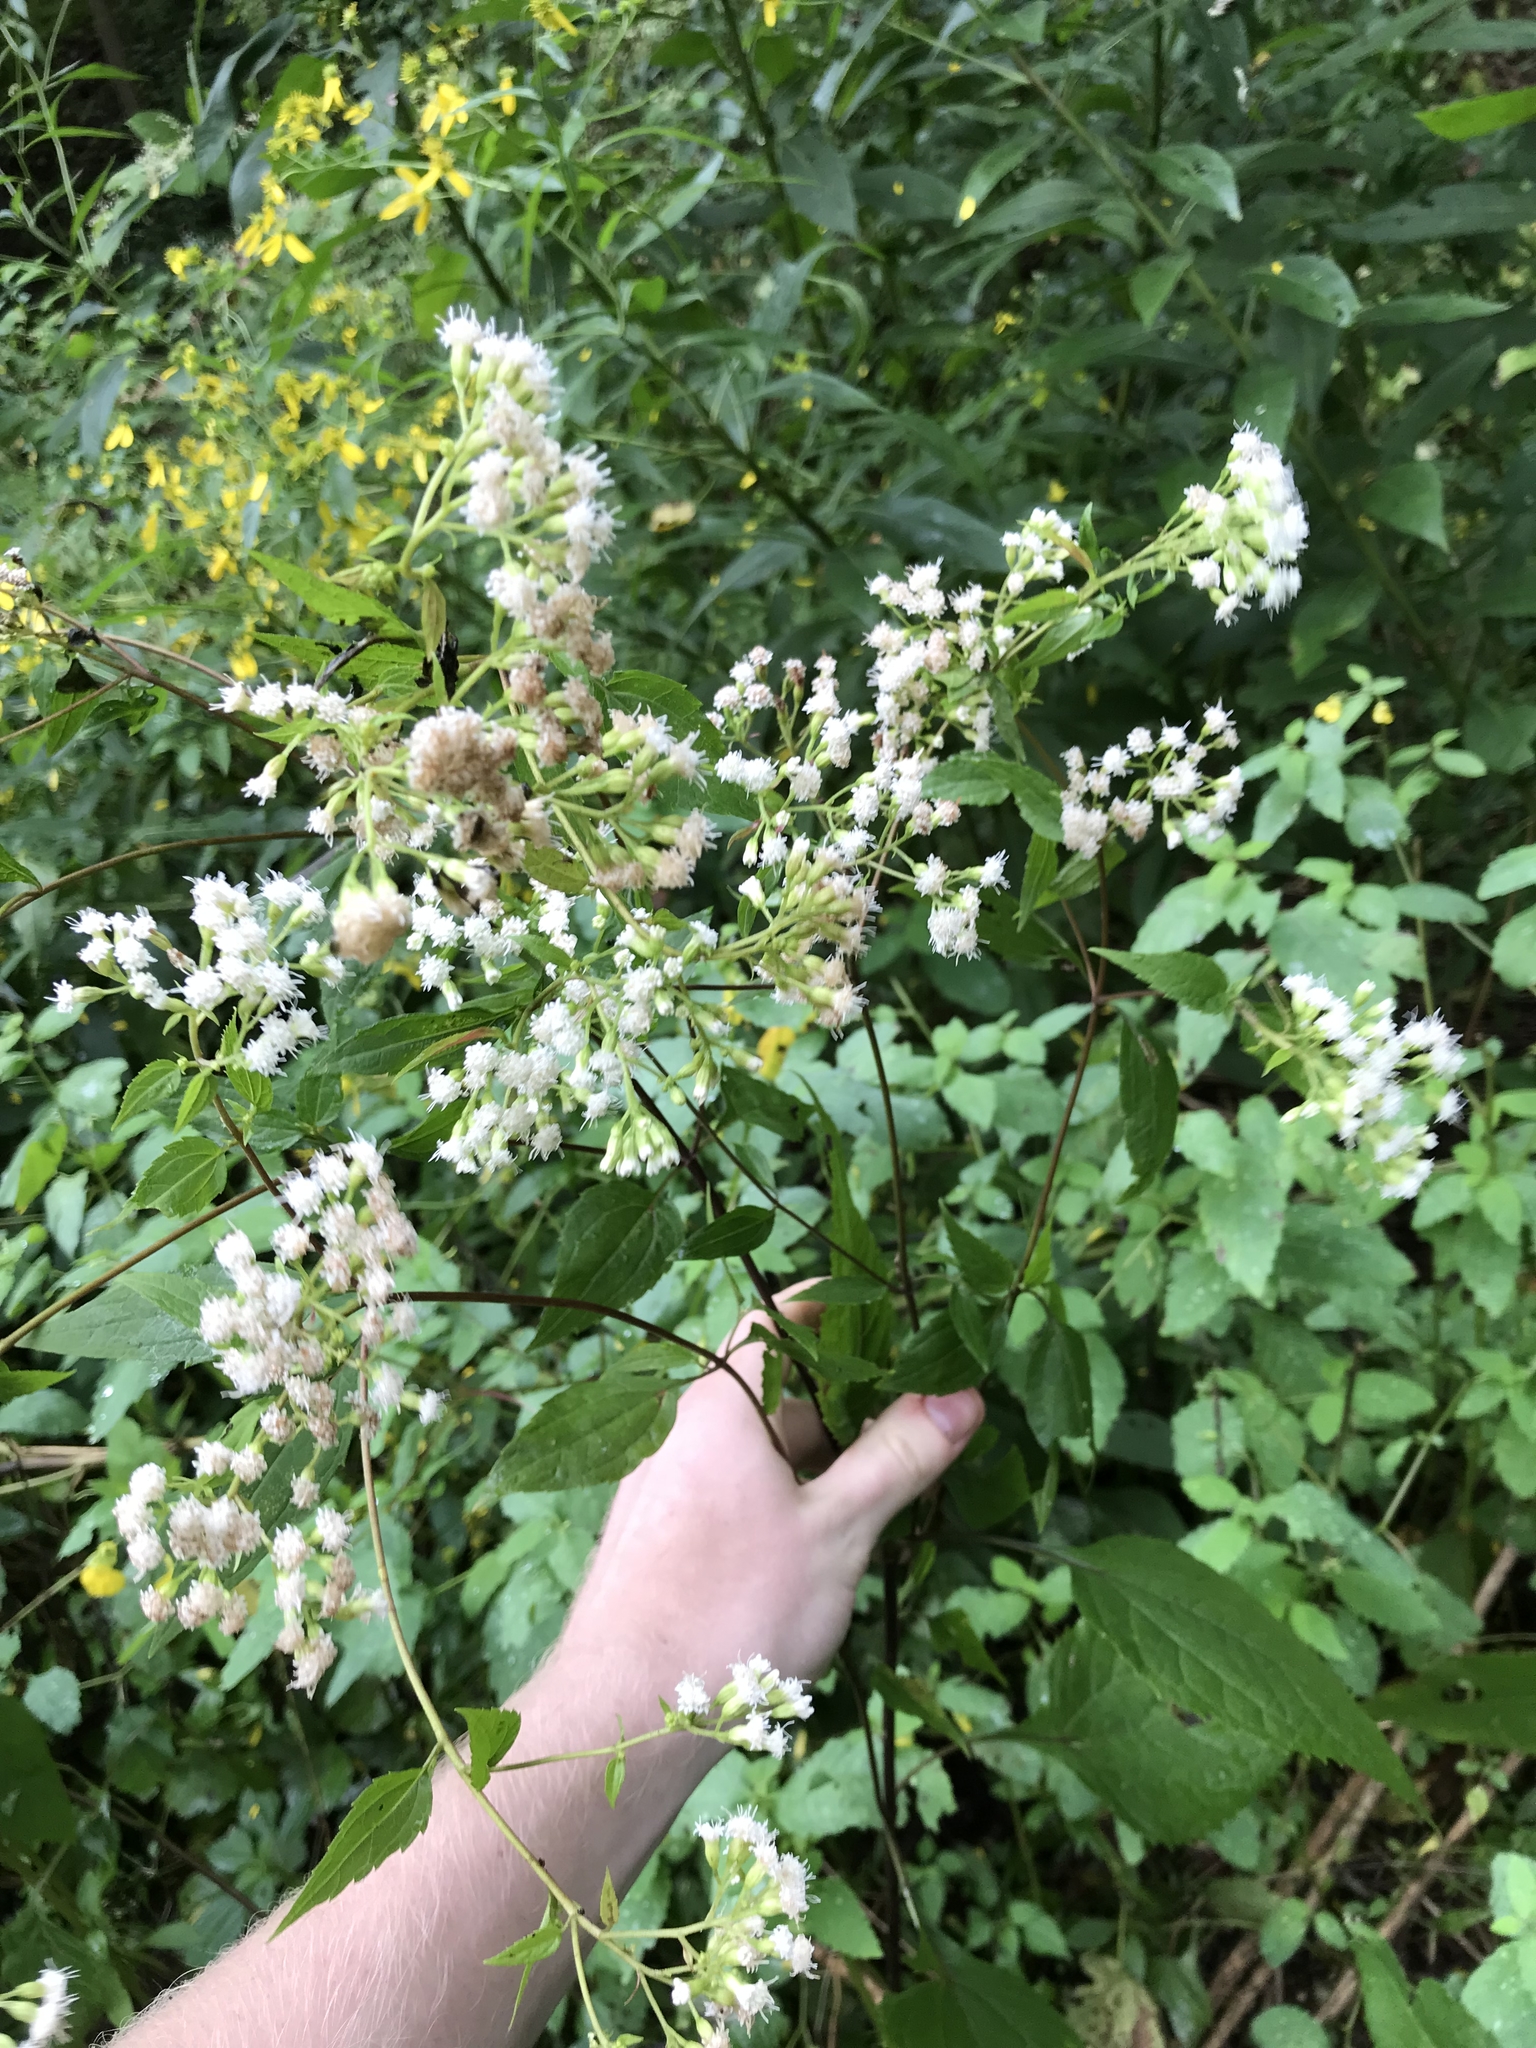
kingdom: Plantae
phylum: Tracheophyta
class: Magnoliopsida
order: Asterales
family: Asteraceae
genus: Ageratina
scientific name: Ageratina altissima
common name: White snakeroot
